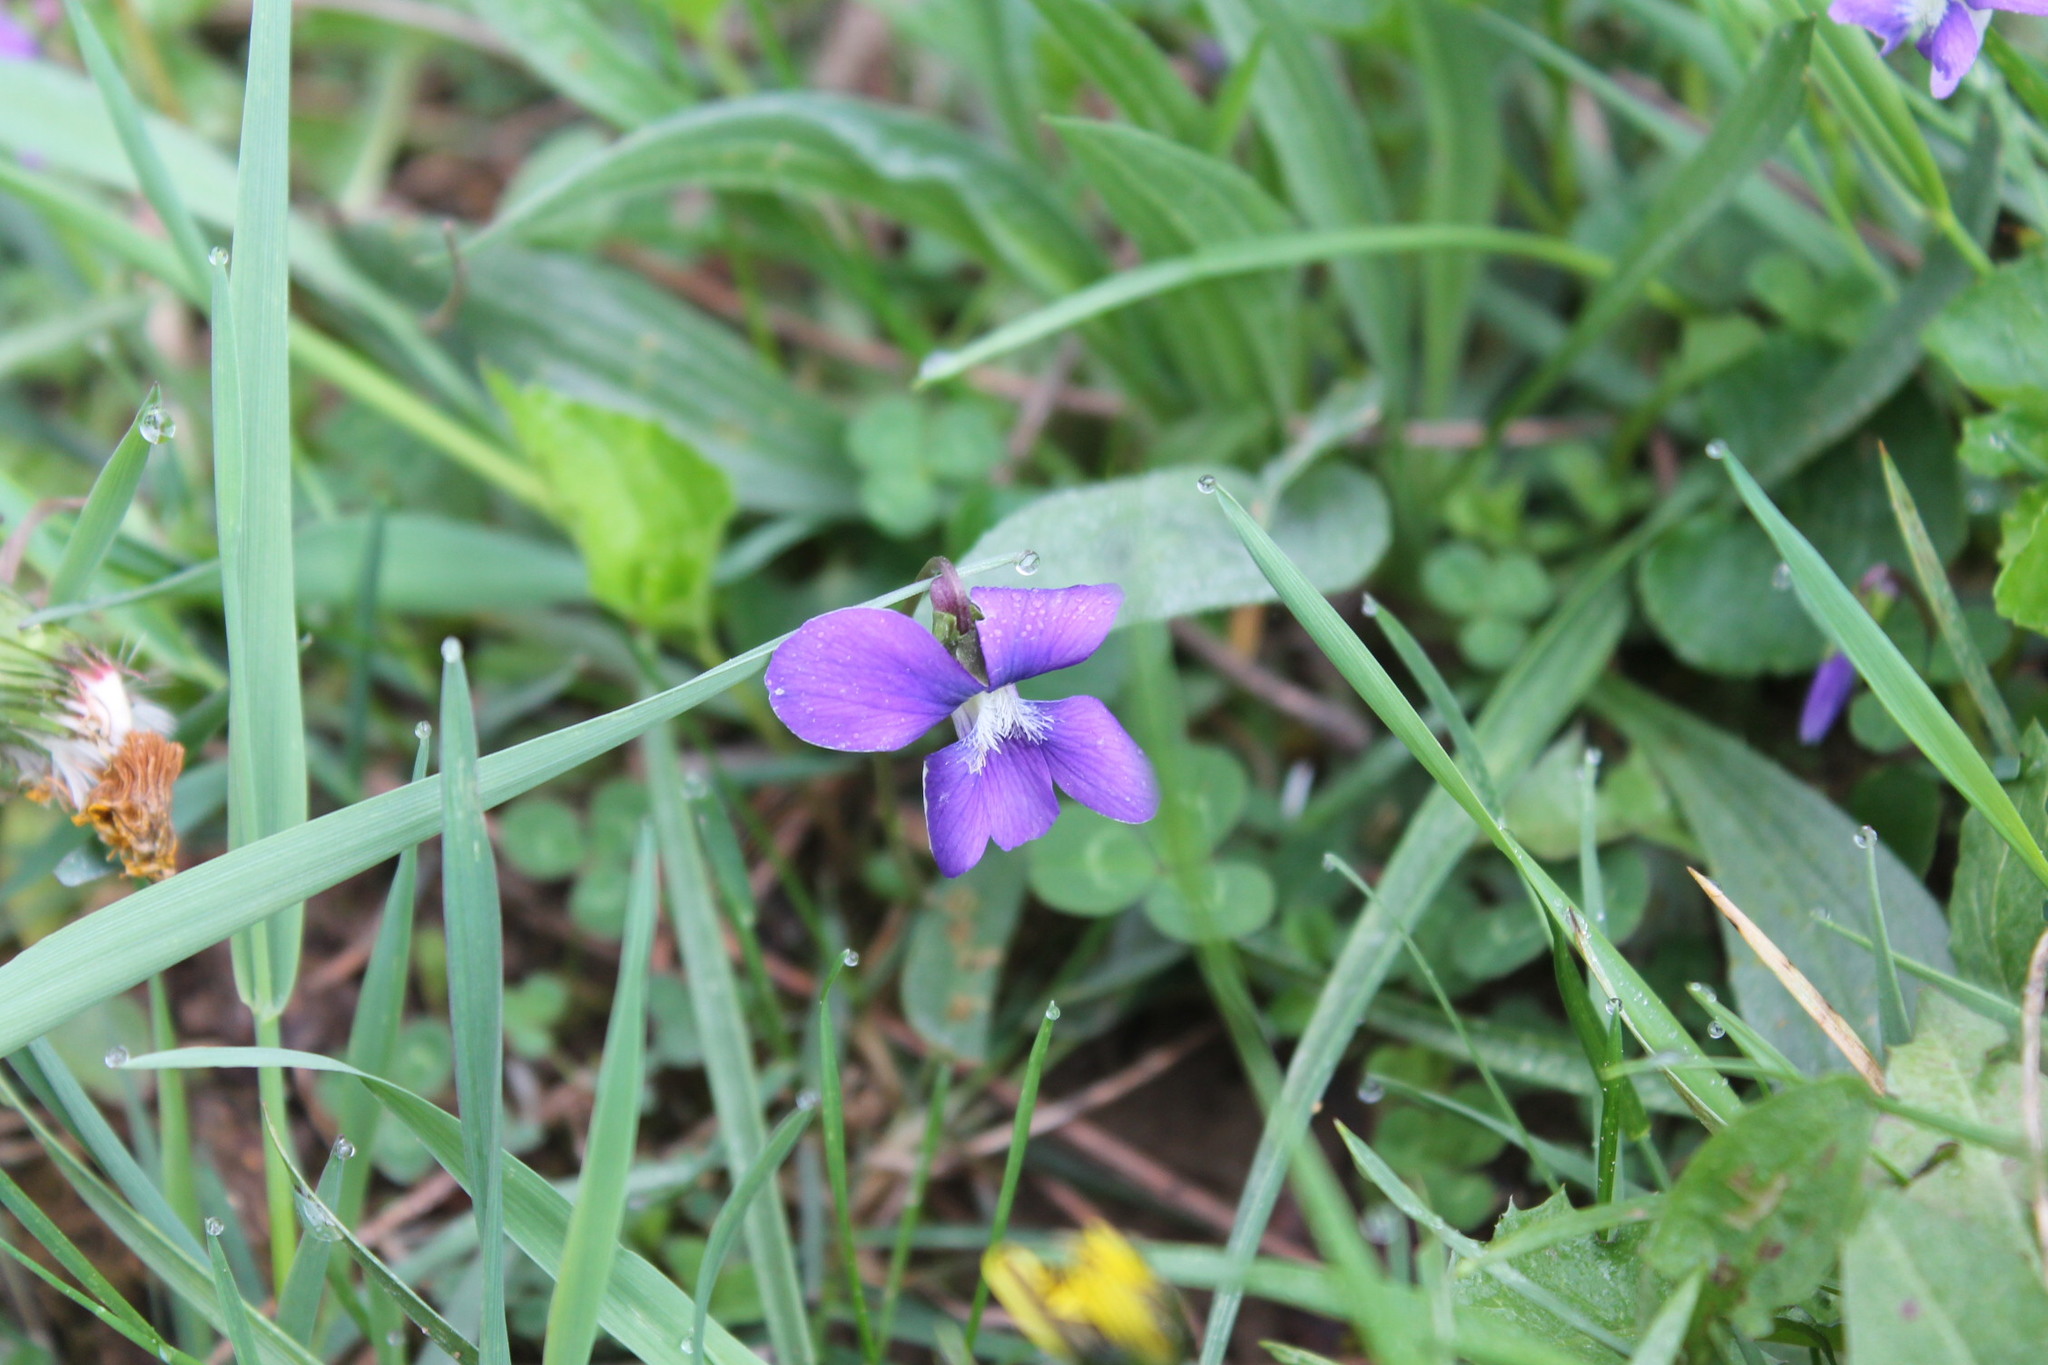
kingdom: Plantae
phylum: Tracheophyta
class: Magnoliopsida
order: Malpighiales
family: Violaceae
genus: Viola
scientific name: Viola sororia
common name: Dooryard violet
